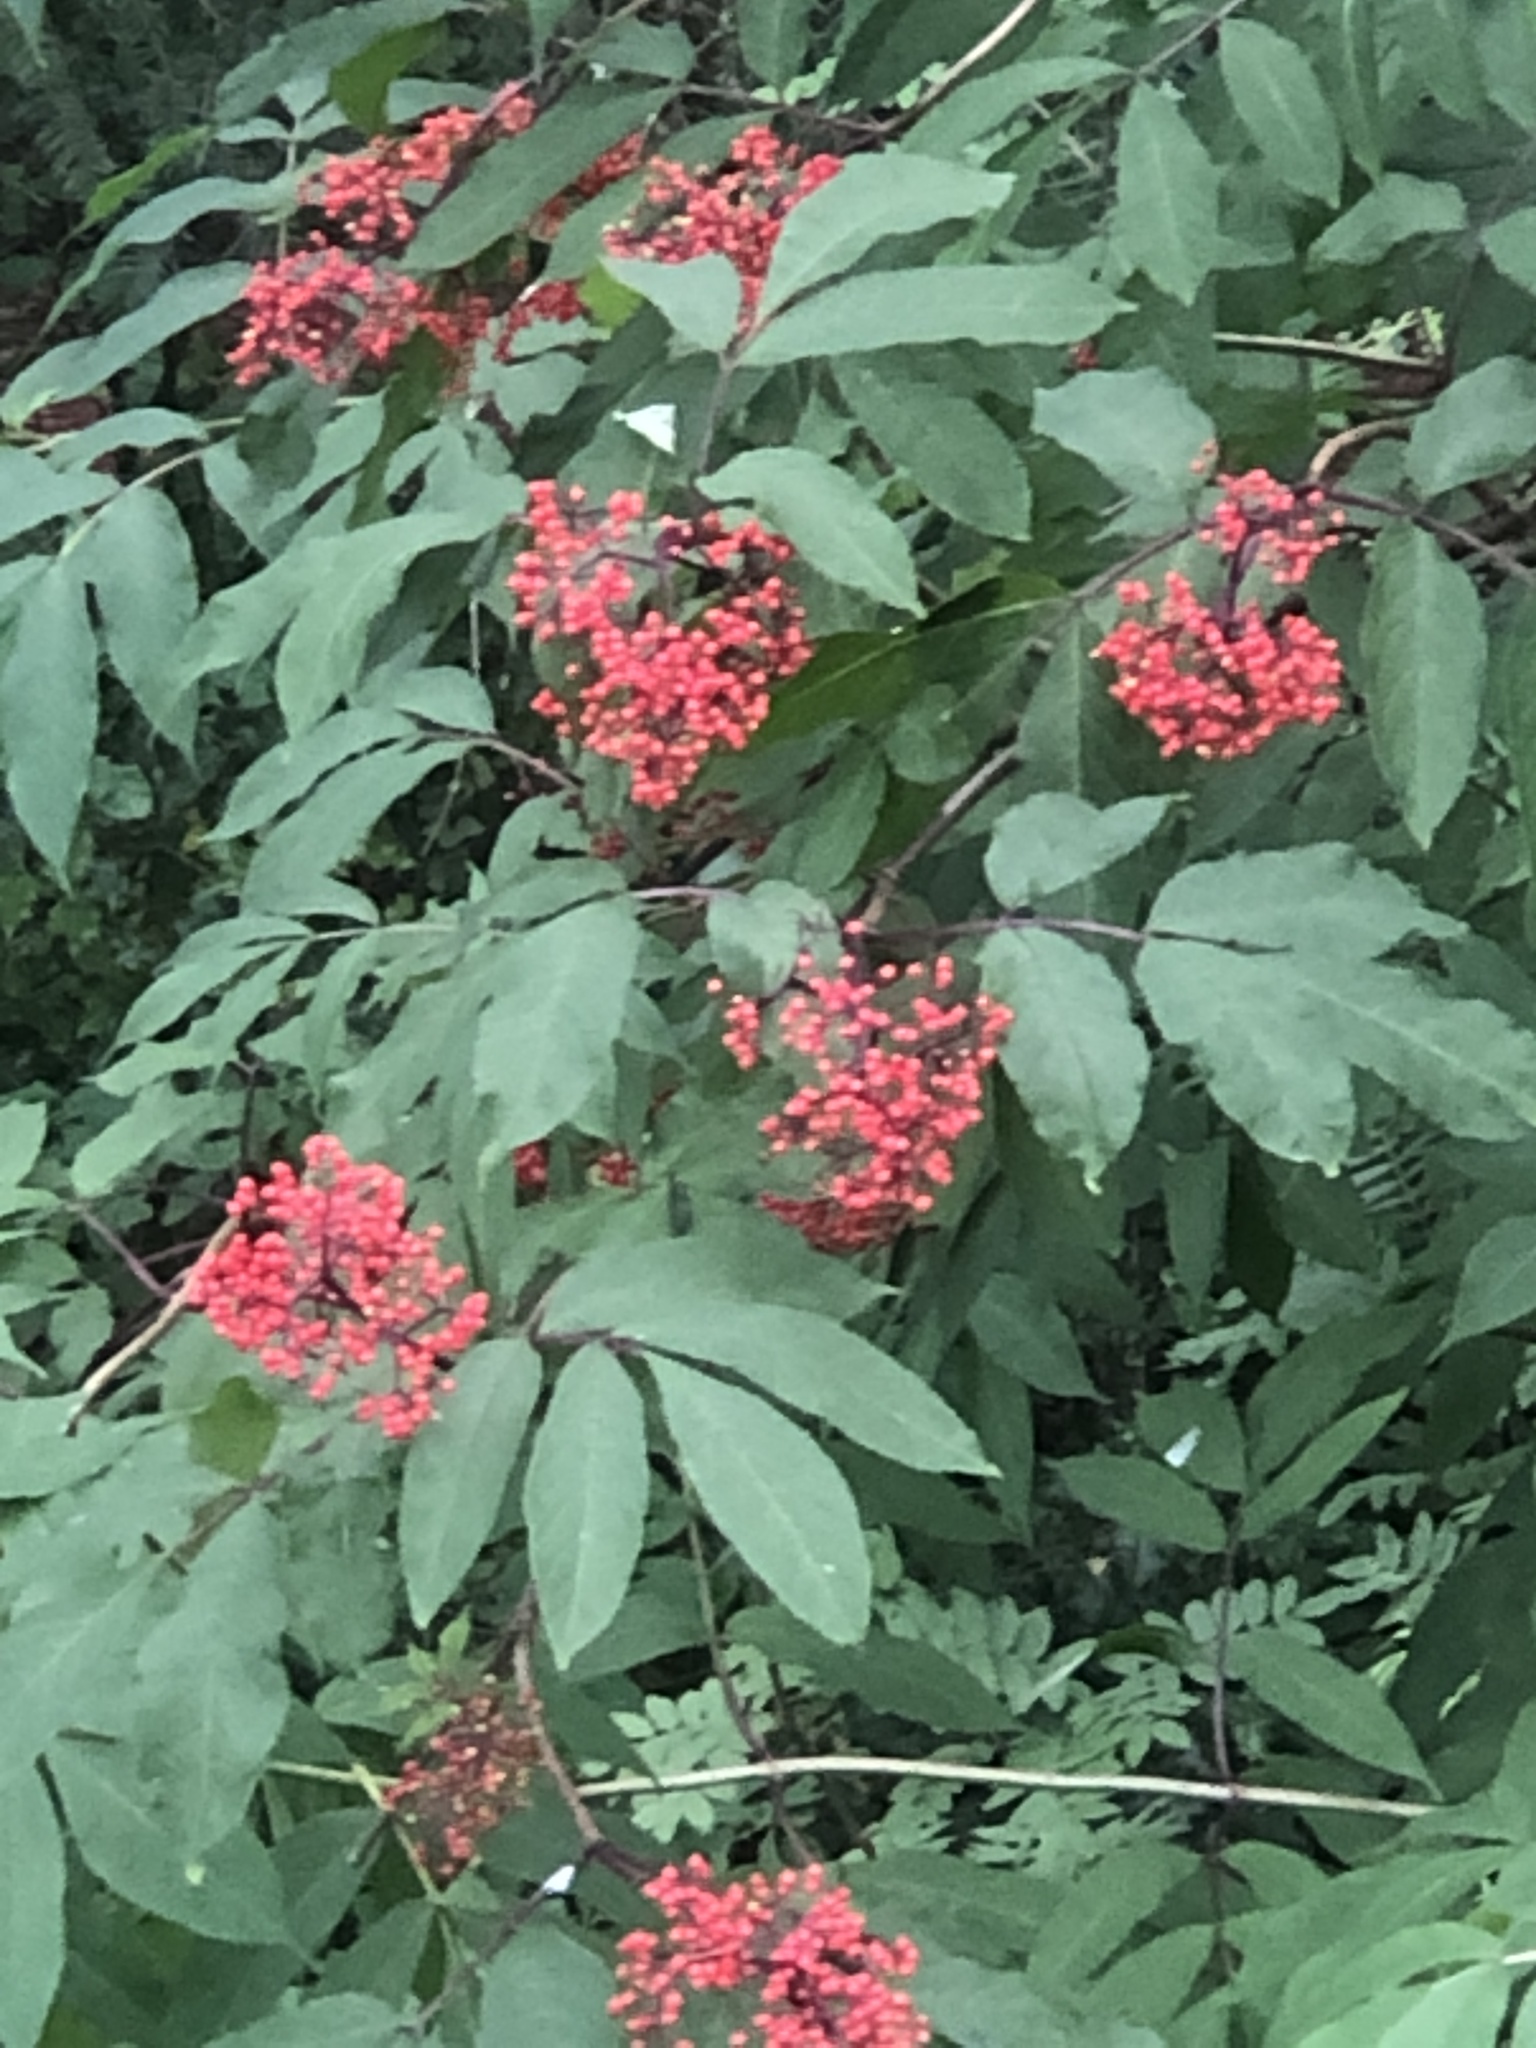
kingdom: Plantae
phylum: Tracheophyta
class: Magnoliopsida
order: Dipsacales
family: Viburnaceae
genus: Sambucus
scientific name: Sambucus racemosa
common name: Red-berried elder
